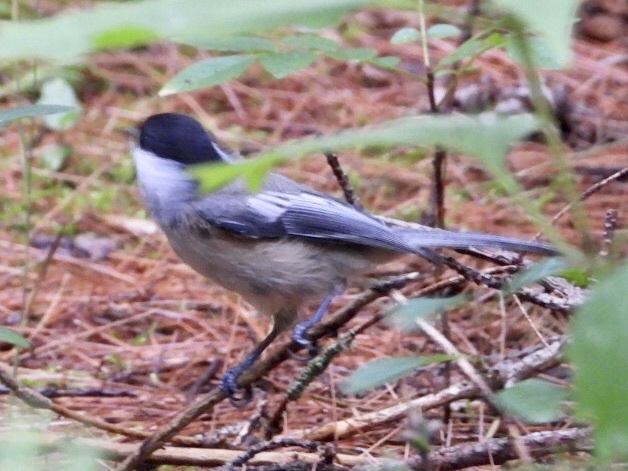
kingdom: Animalia
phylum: Chordata
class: Aves
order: Passeriformes
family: Paridae
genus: Poecile
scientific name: Poecile atricapillus
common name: Black-capped chickadee
